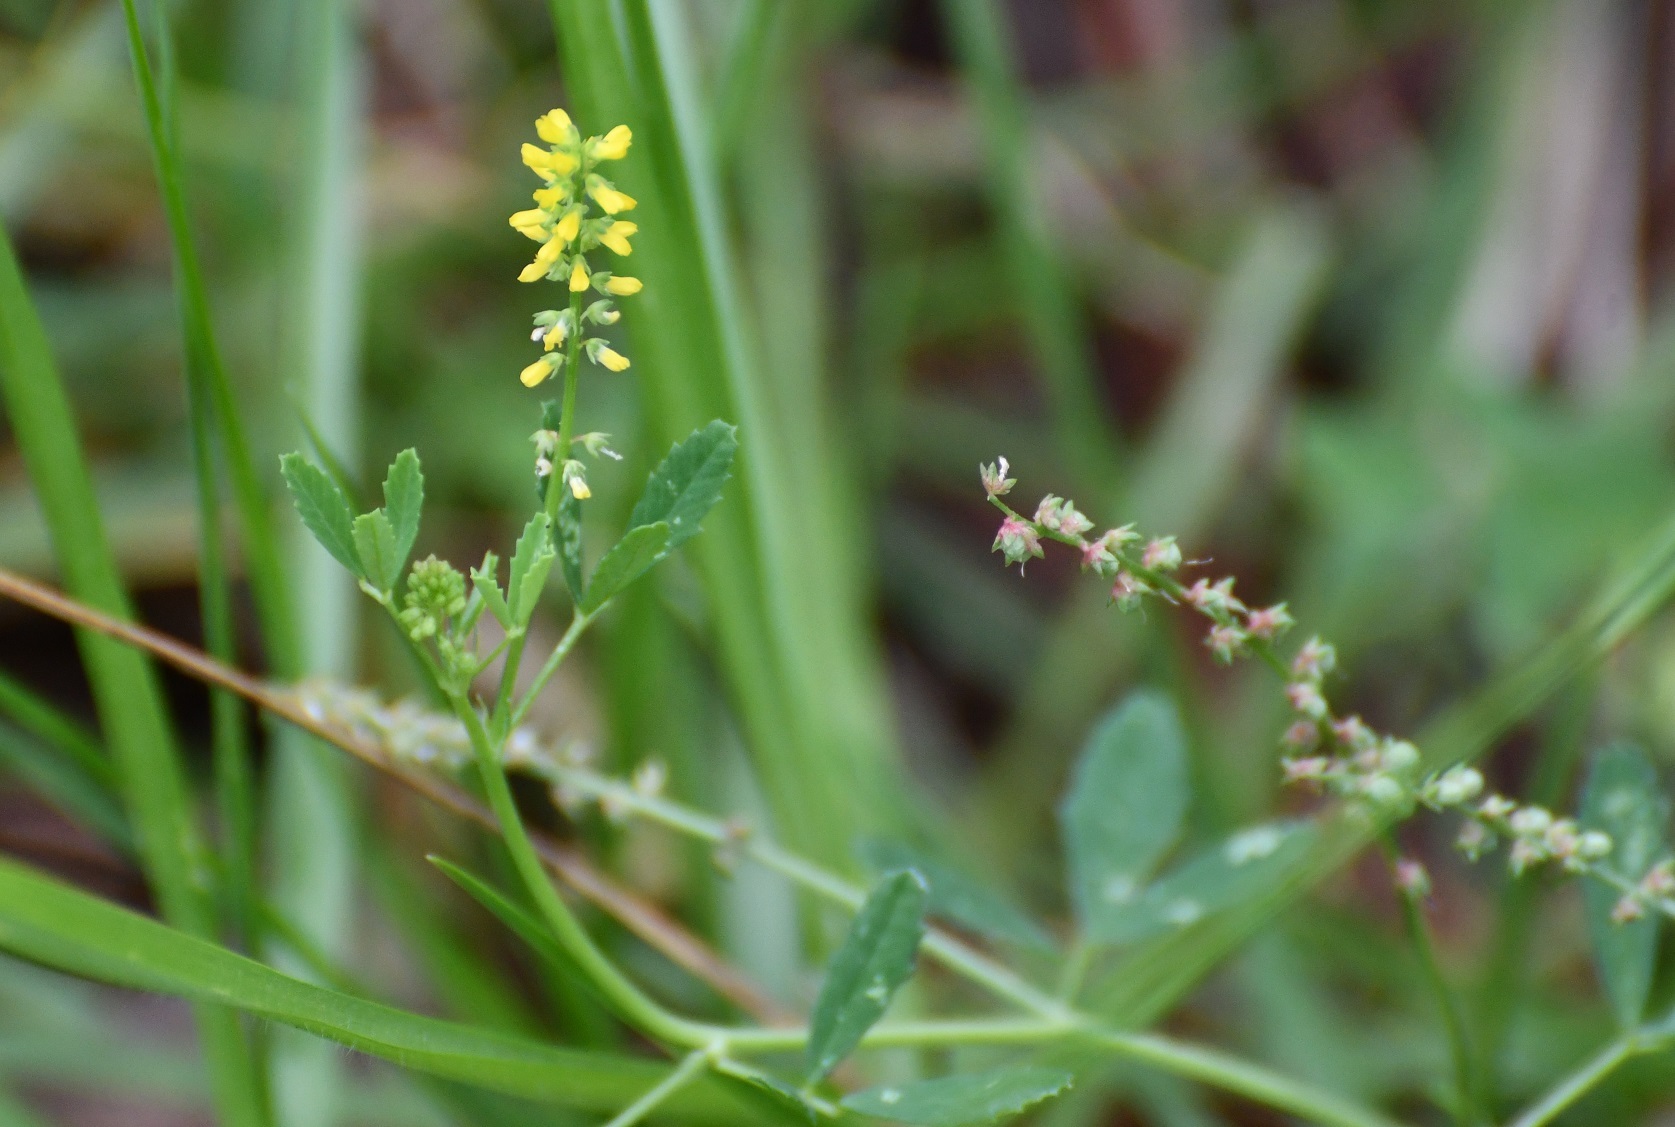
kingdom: Plantae
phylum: Tracheophyta
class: Magnoliopsida
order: Fabales
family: Fabaceae
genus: Melilotus
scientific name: Melilotus indicus
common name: Small melilot
